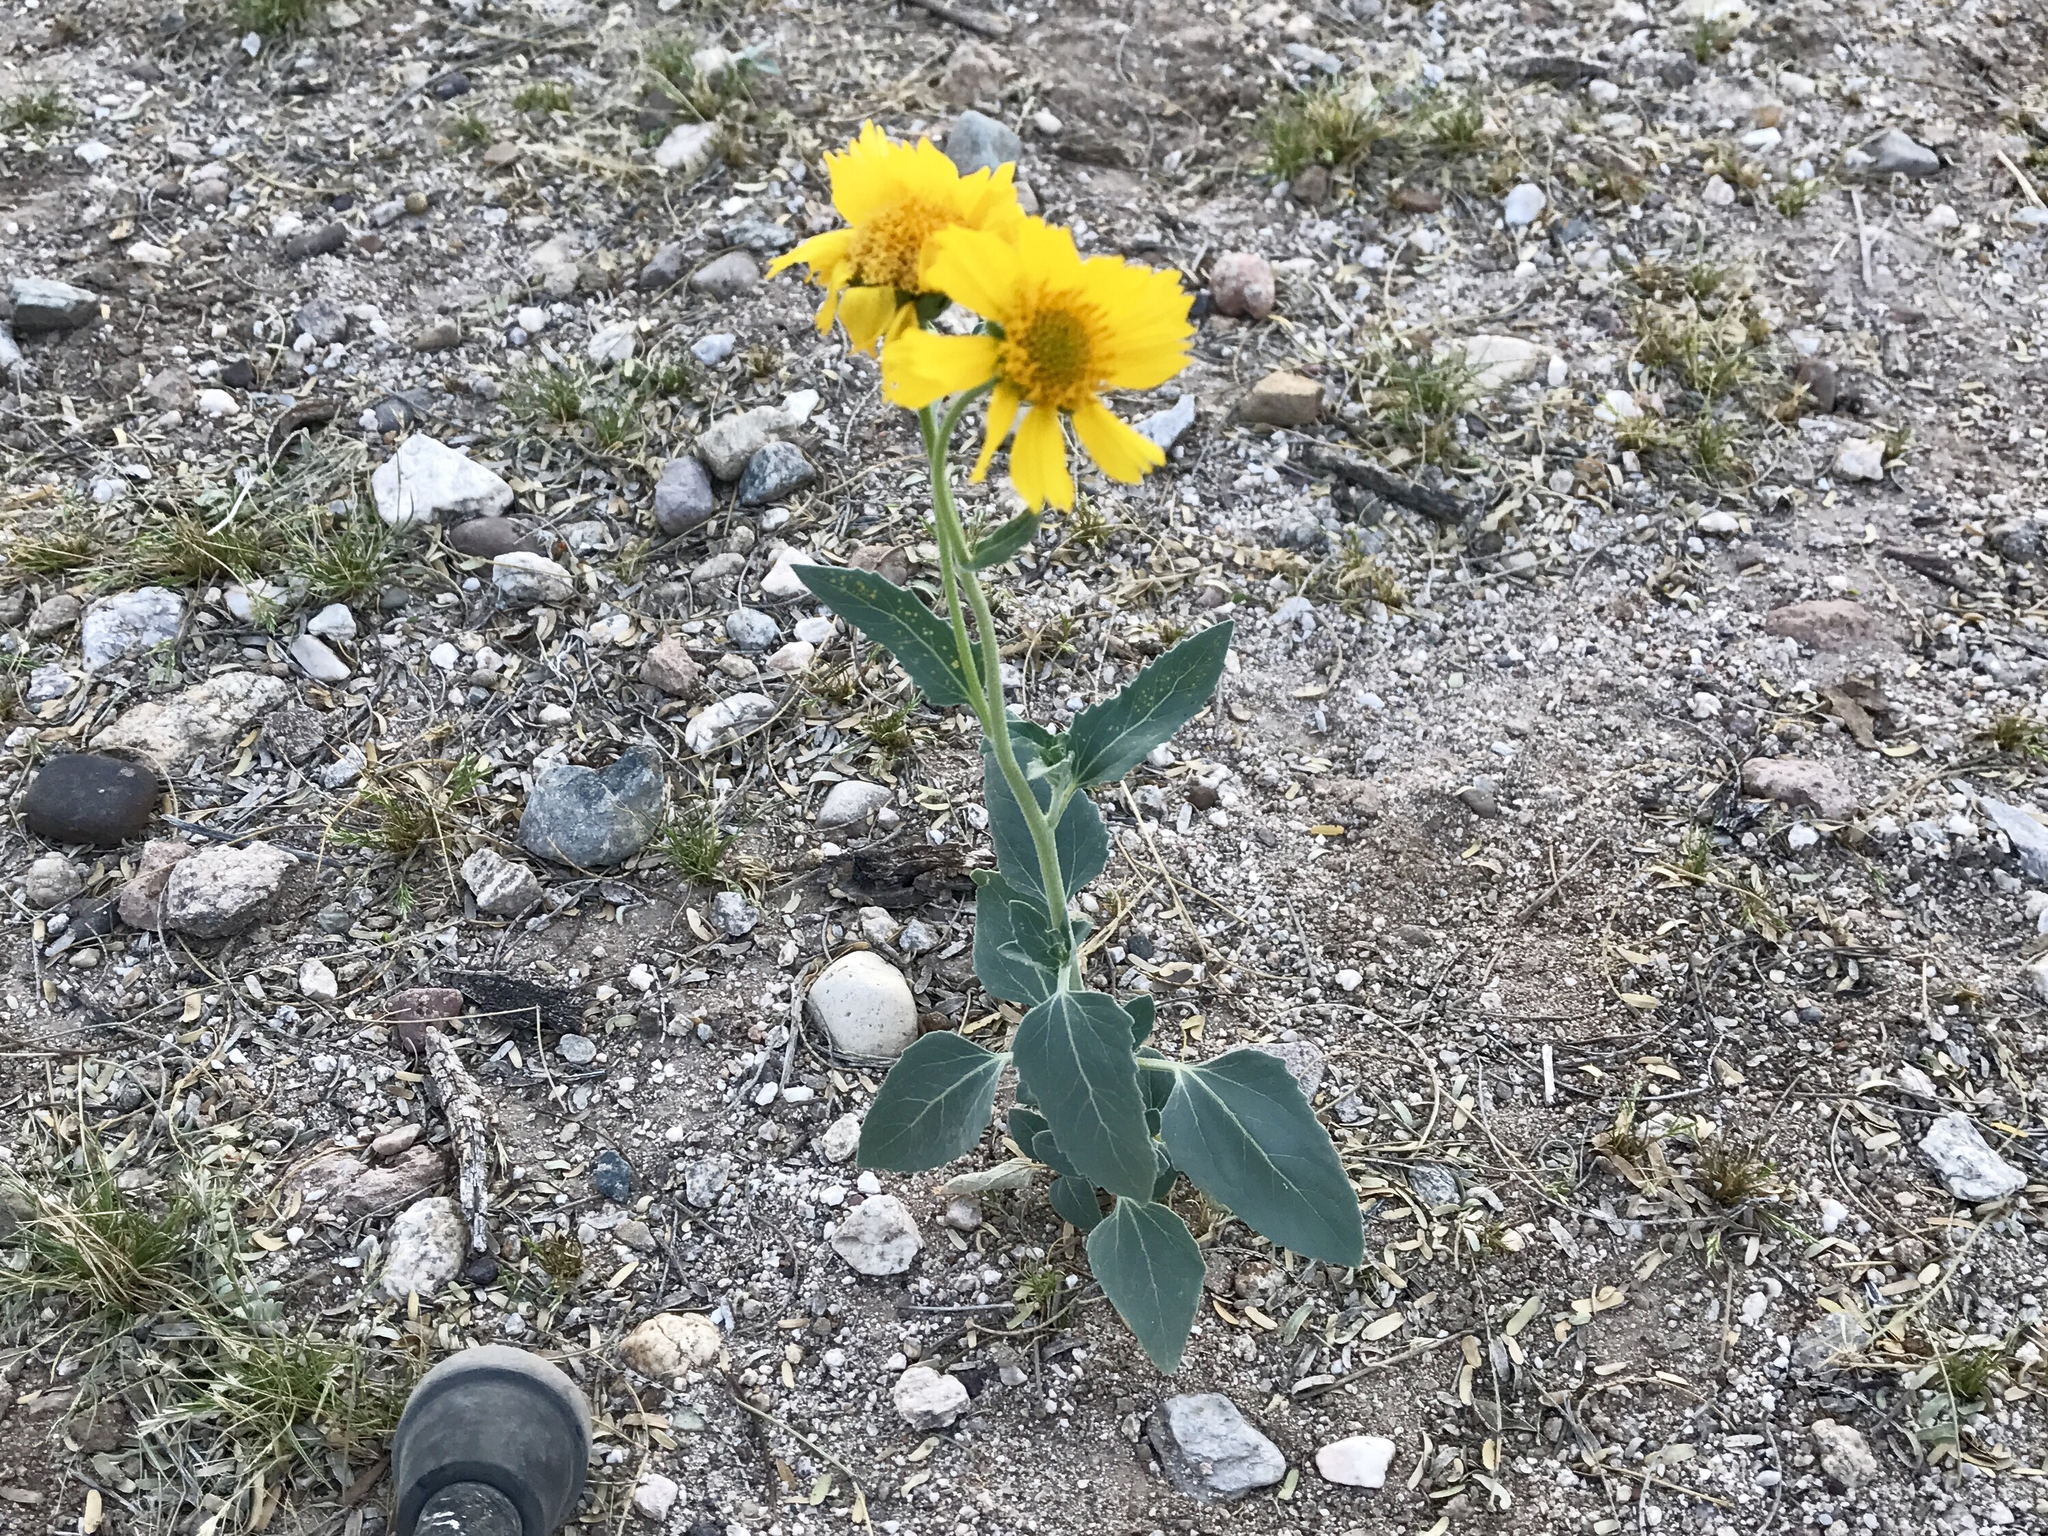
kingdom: Plantae
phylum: Tracheophyta
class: Magnoliopsida
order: Asterales
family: Asteraceae
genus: Verbesina
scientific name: Verbesina encelioides
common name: Golden crownbeard
